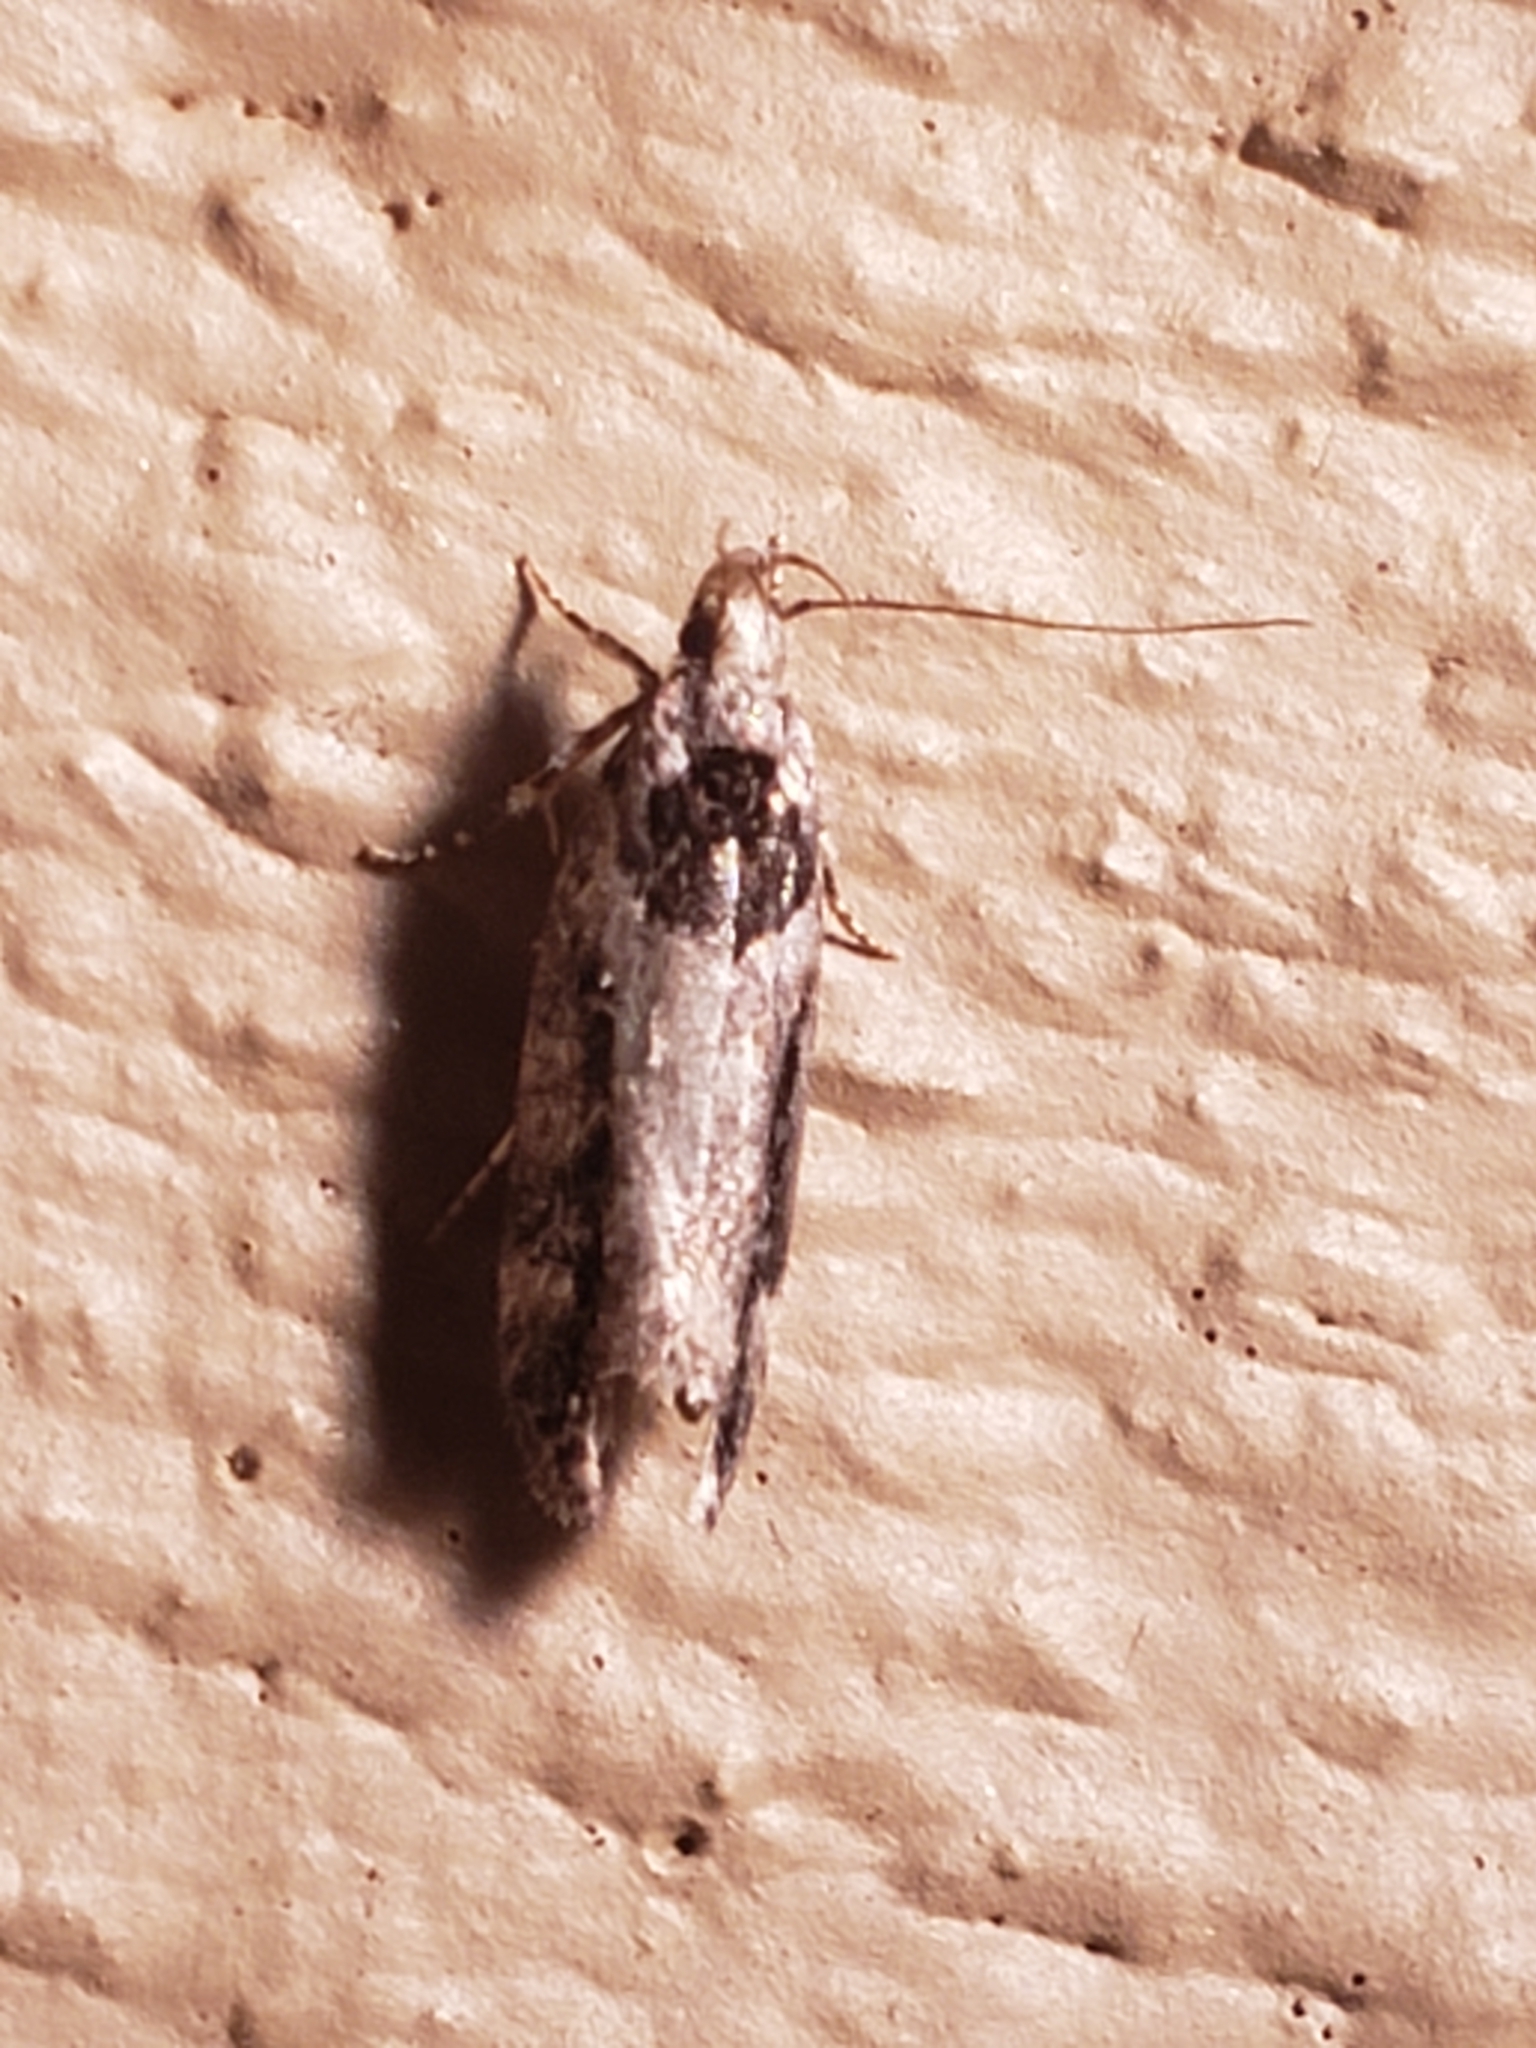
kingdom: Animalia
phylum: Arthropoda
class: Insecta
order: Lepidoptera
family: Gelechiidae
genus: Pseudochelaria
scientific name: Pseudochelaria walsinghami
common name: Walsingham's moth
